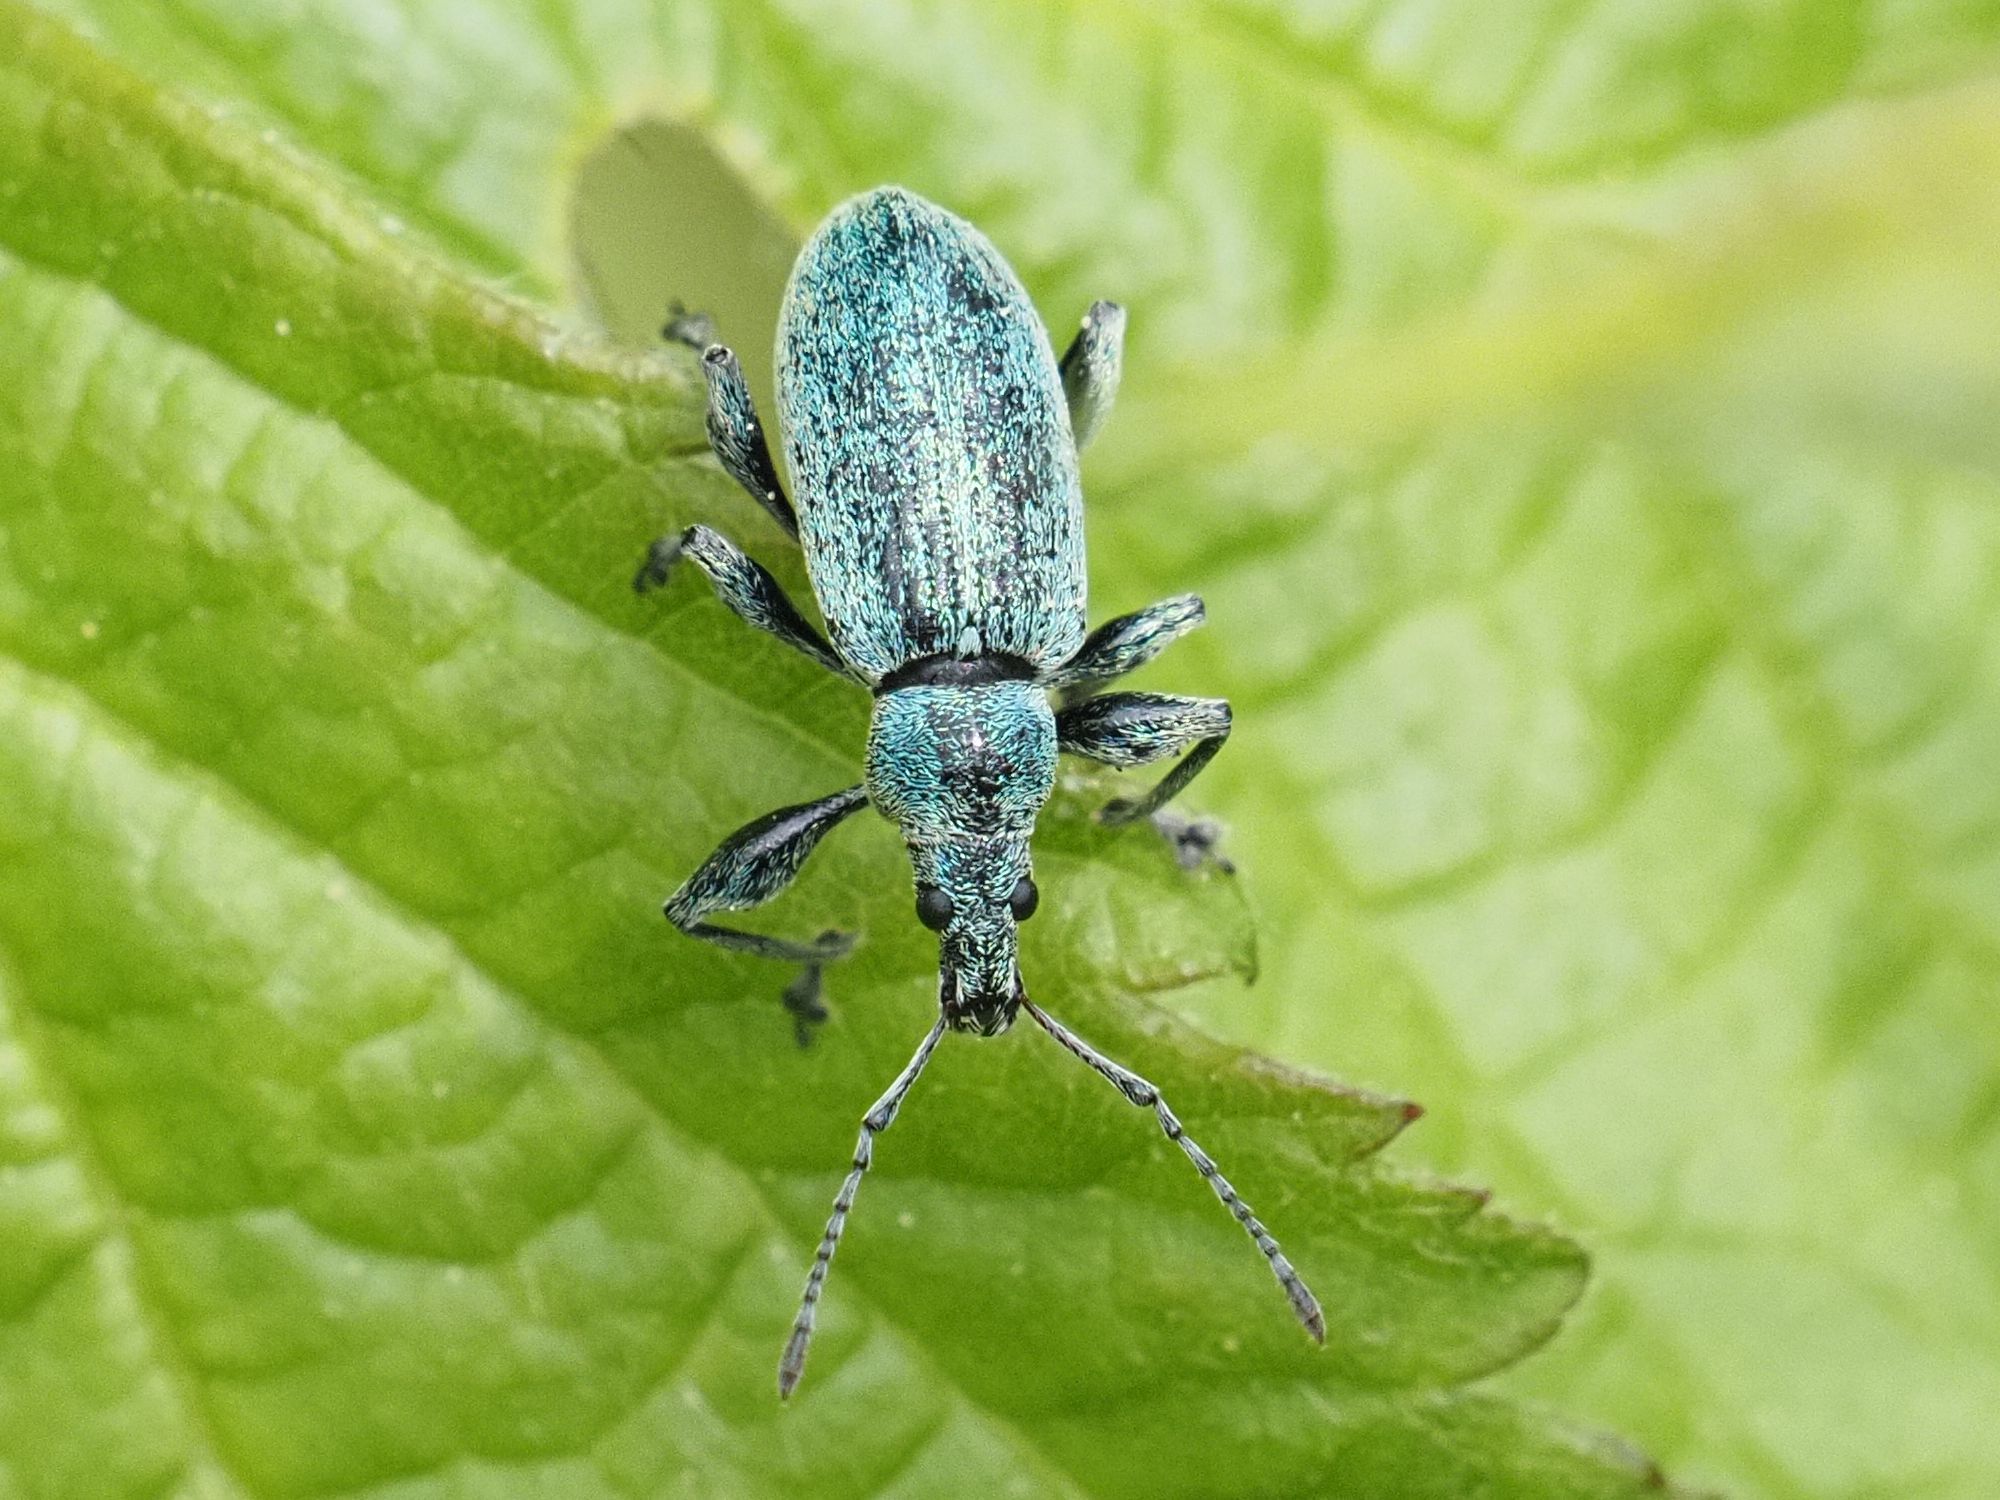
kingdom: Animalia
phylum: Arthropoda
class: Insecta
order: Coleoptera
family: Curculionidae
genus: Phyllobius
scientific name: Phyllobius pomaceus
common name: Green nettle weevil
